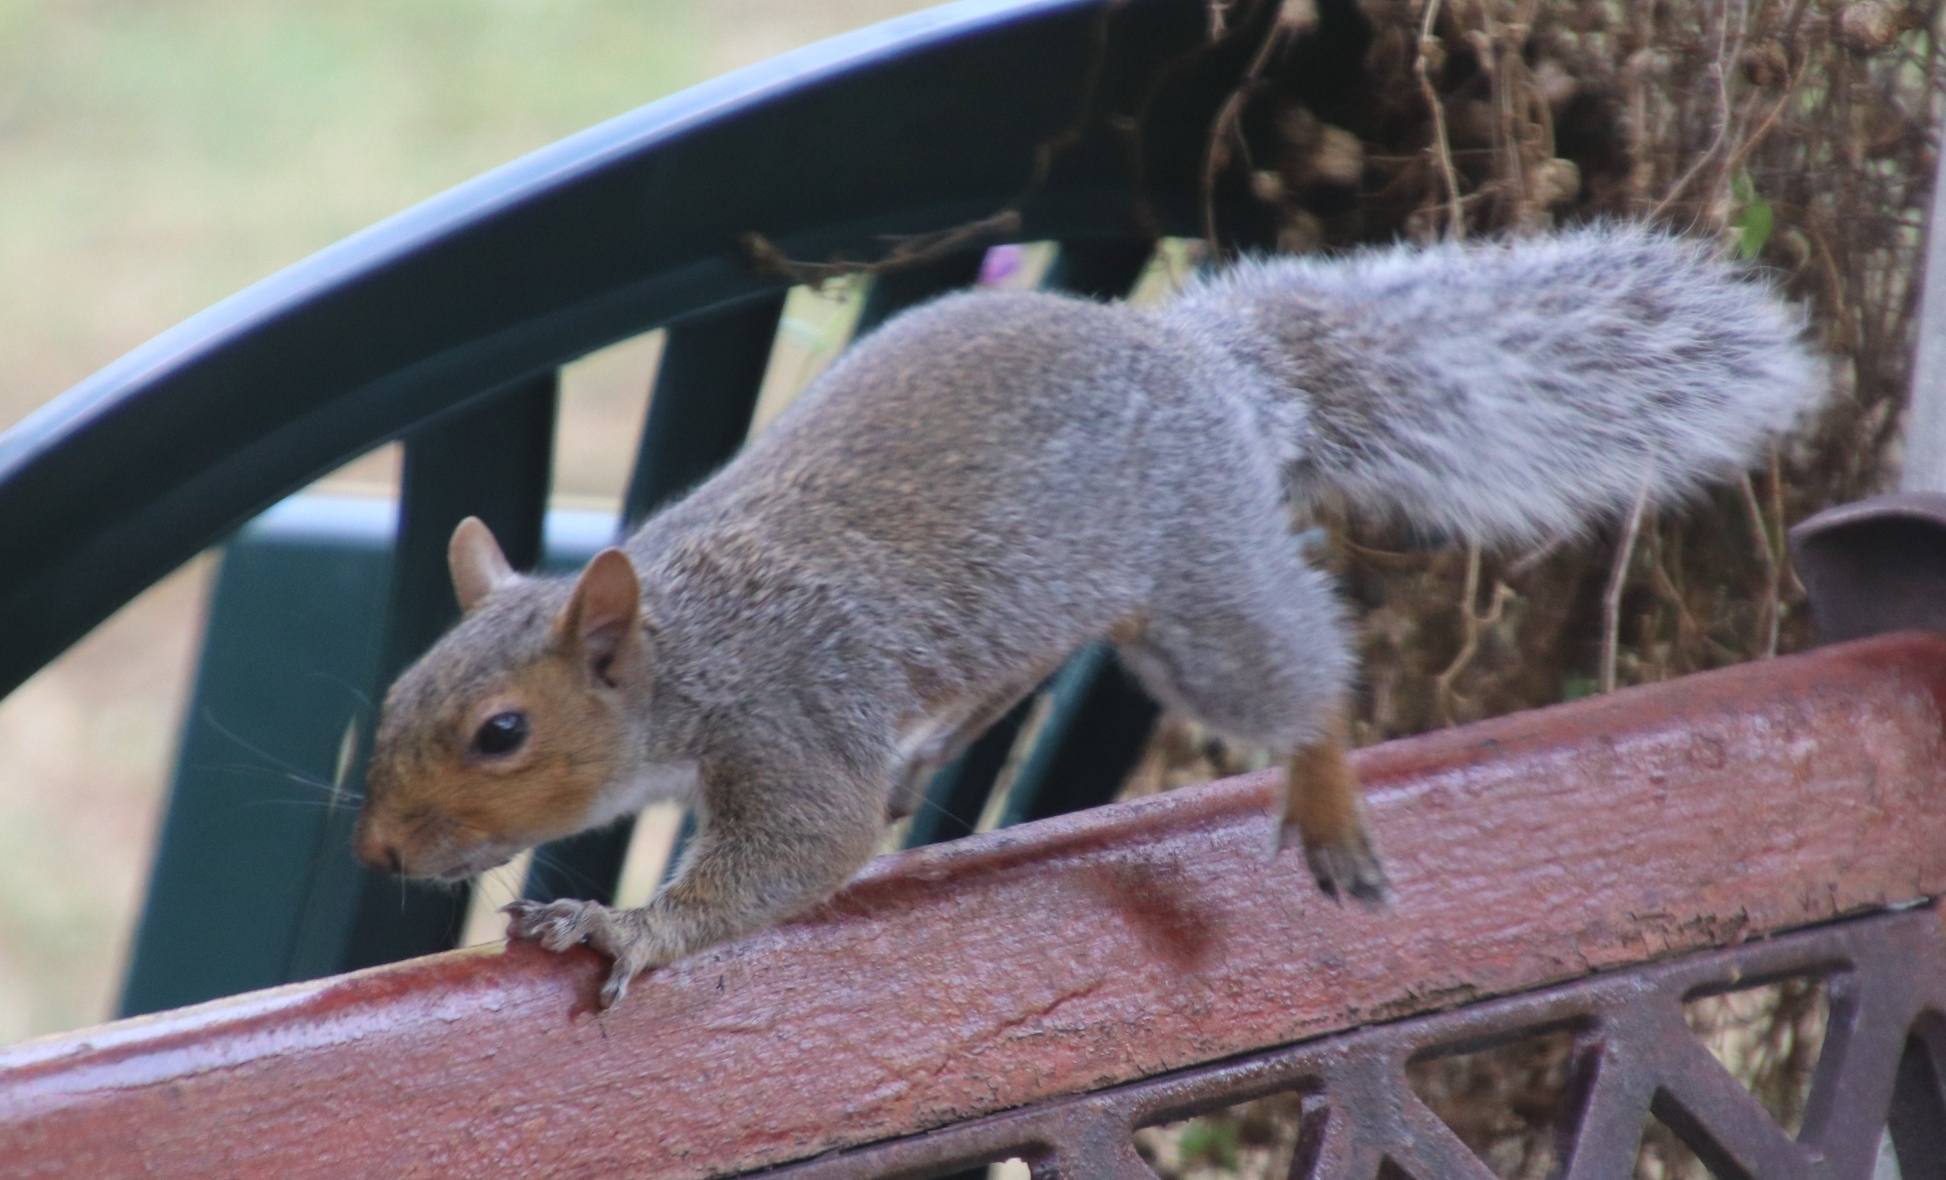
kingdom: Animalia
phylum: Chordata
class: Mammalia
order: Rodentia
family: Sciuridae
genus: Sciurus
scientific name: Sciurus carolinensis
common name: Eastern gray squirrel
